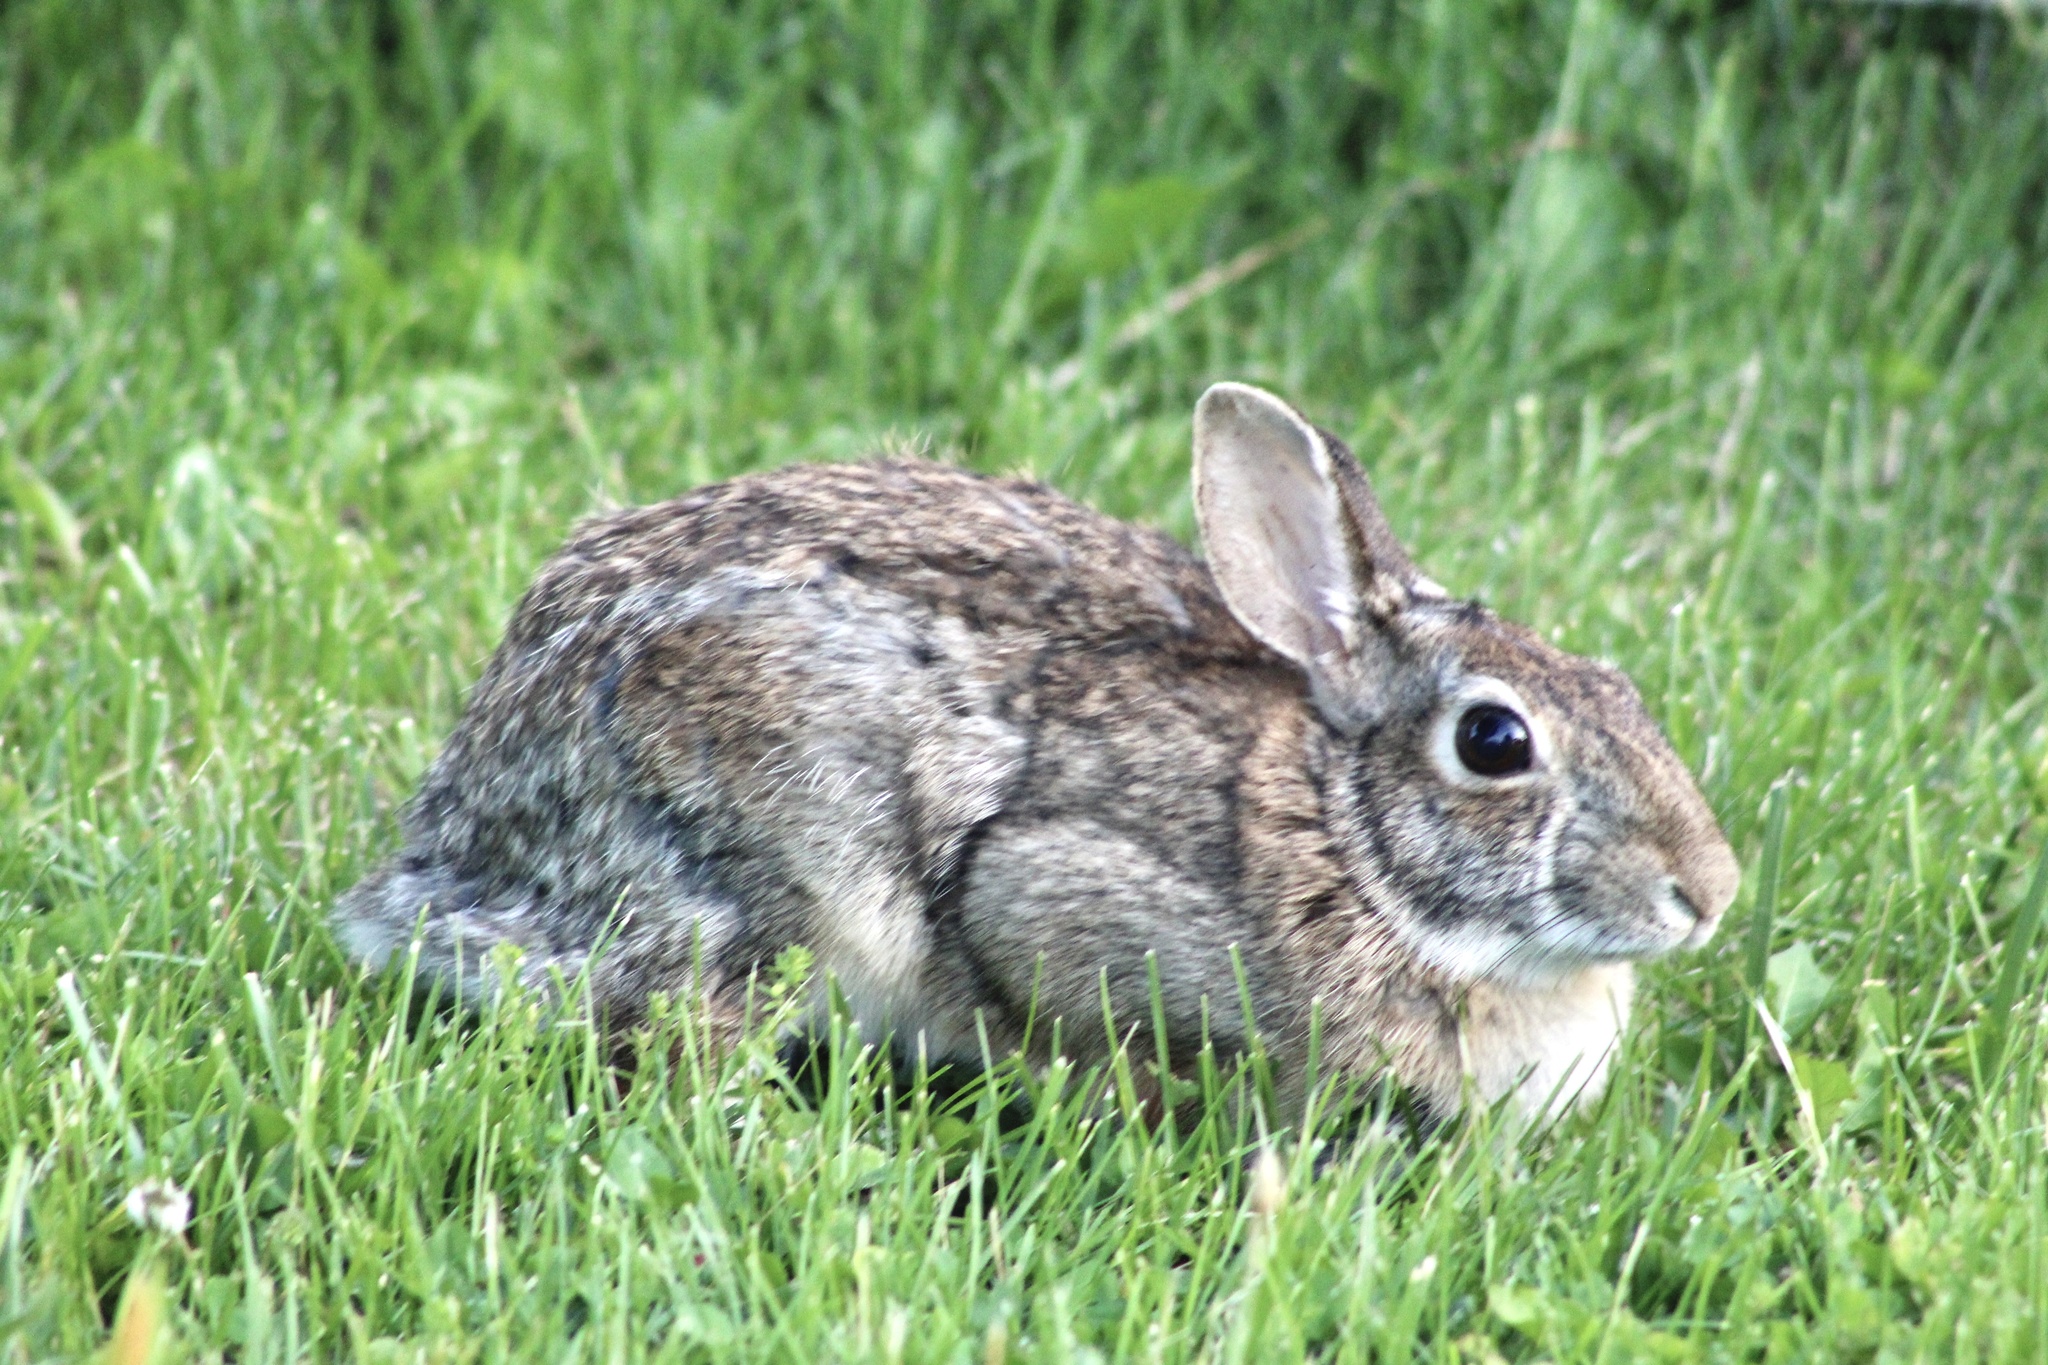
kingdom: Animalia
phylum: Chordata
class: Mammalia
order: Lagomorpha
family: Leporidae
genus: Sylvilagus
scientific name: Sylvilagus floridanus
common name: Eastern cottontail
